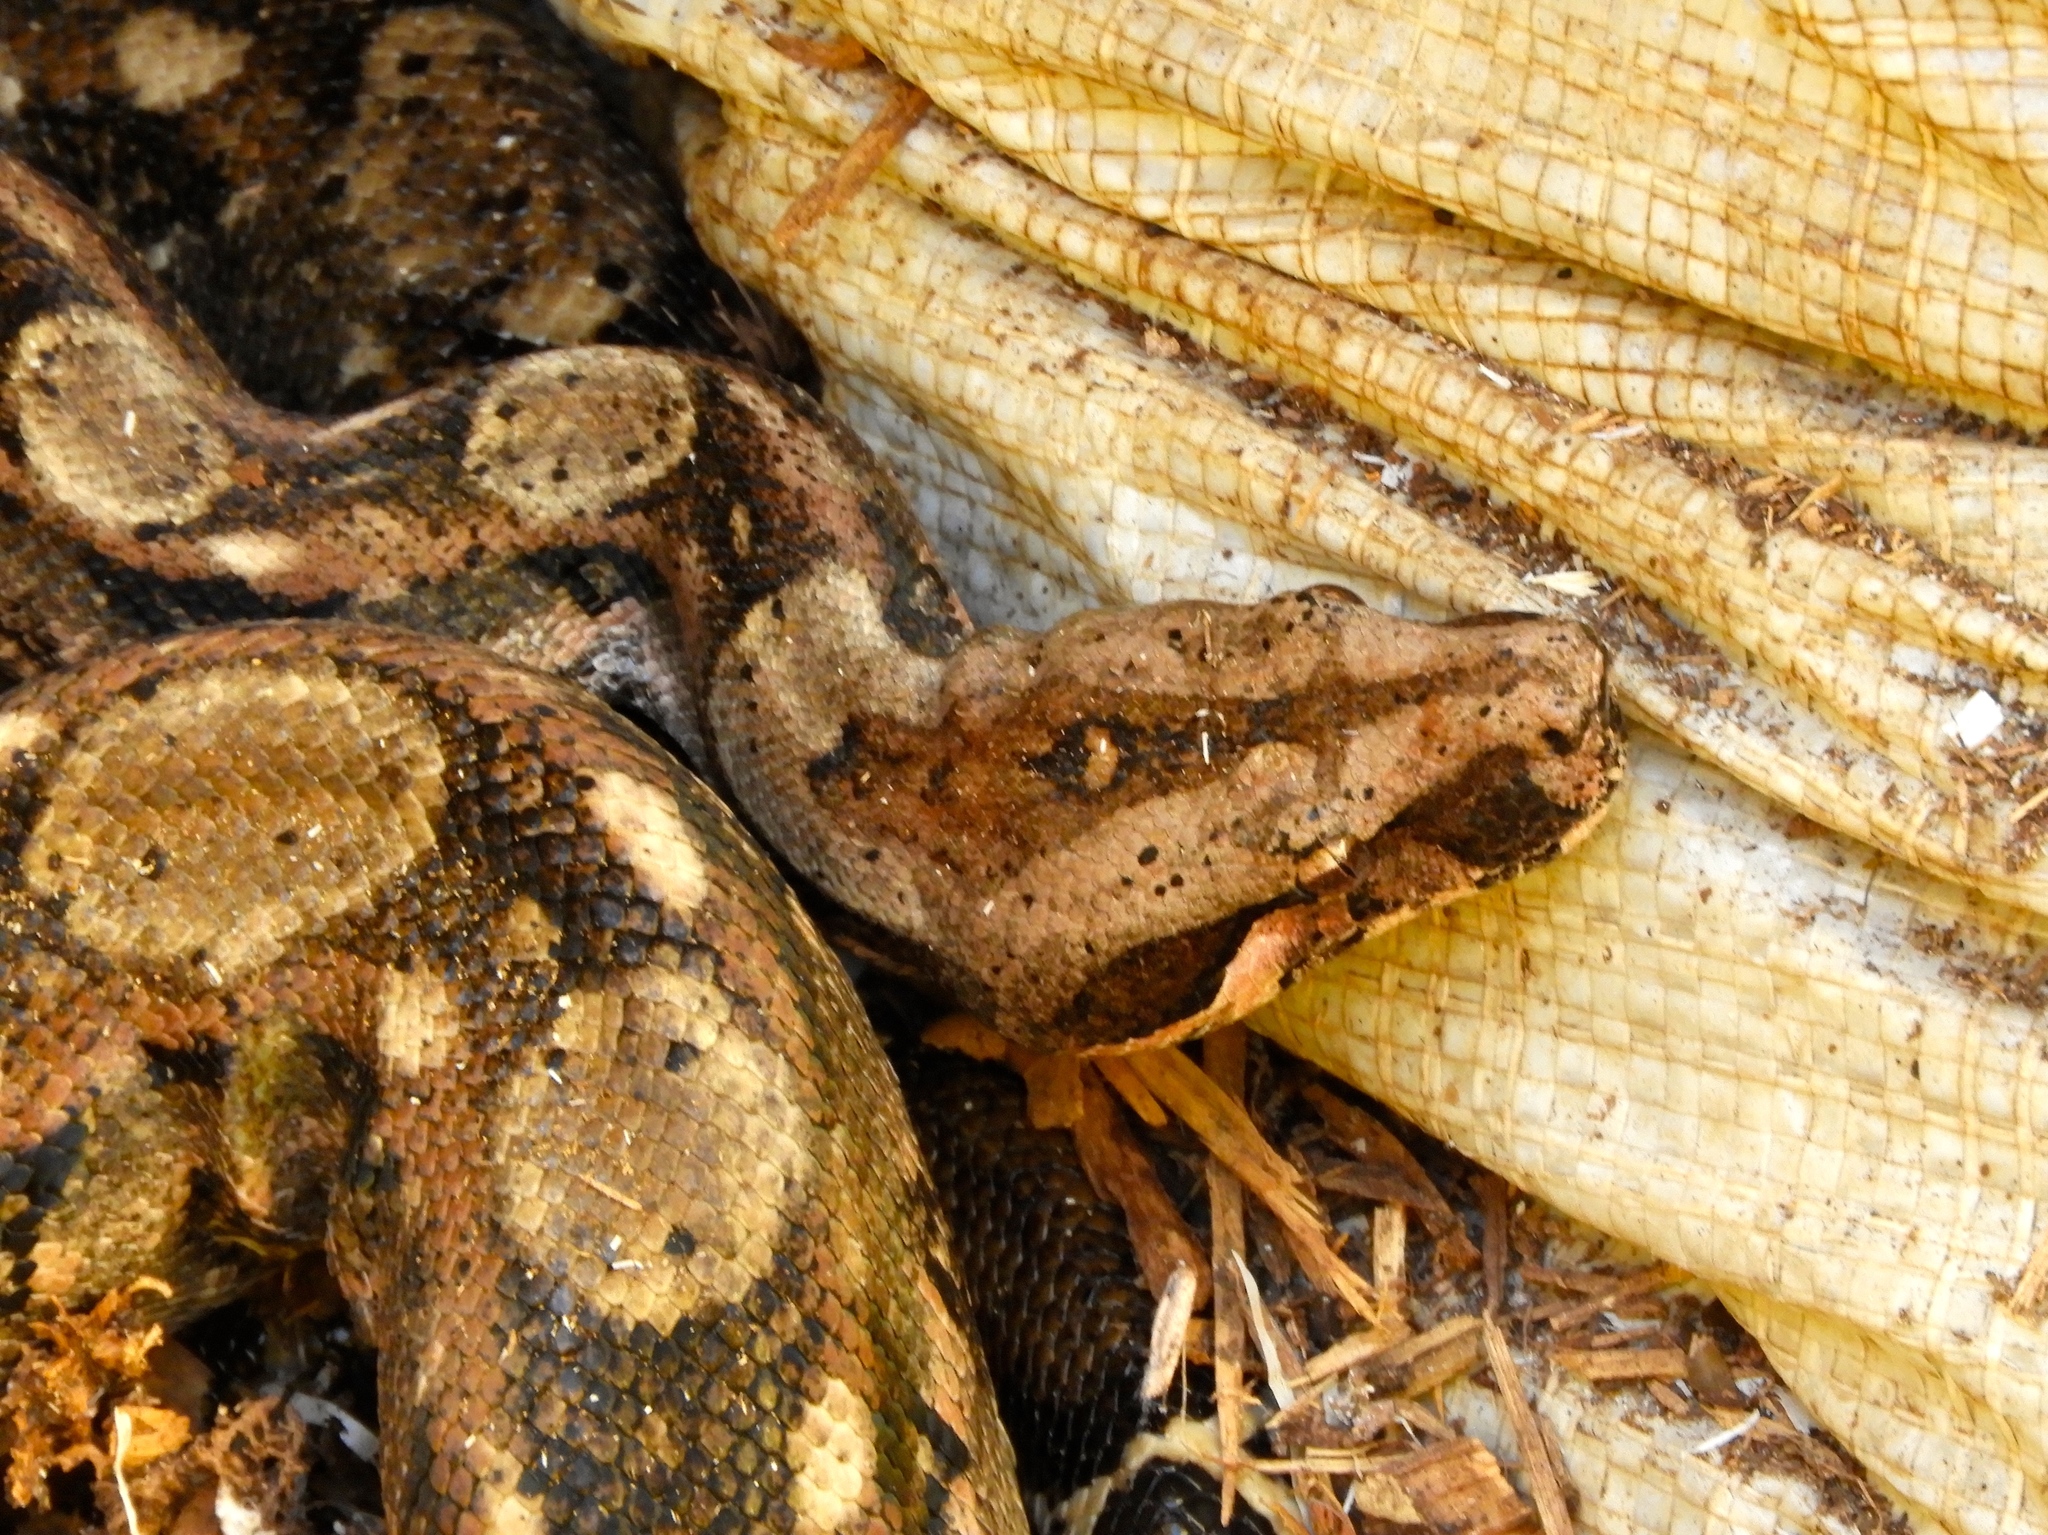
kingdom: Animalia
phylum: Chordata
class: Squamata
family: Boidae
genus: Boa
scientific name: Boa
